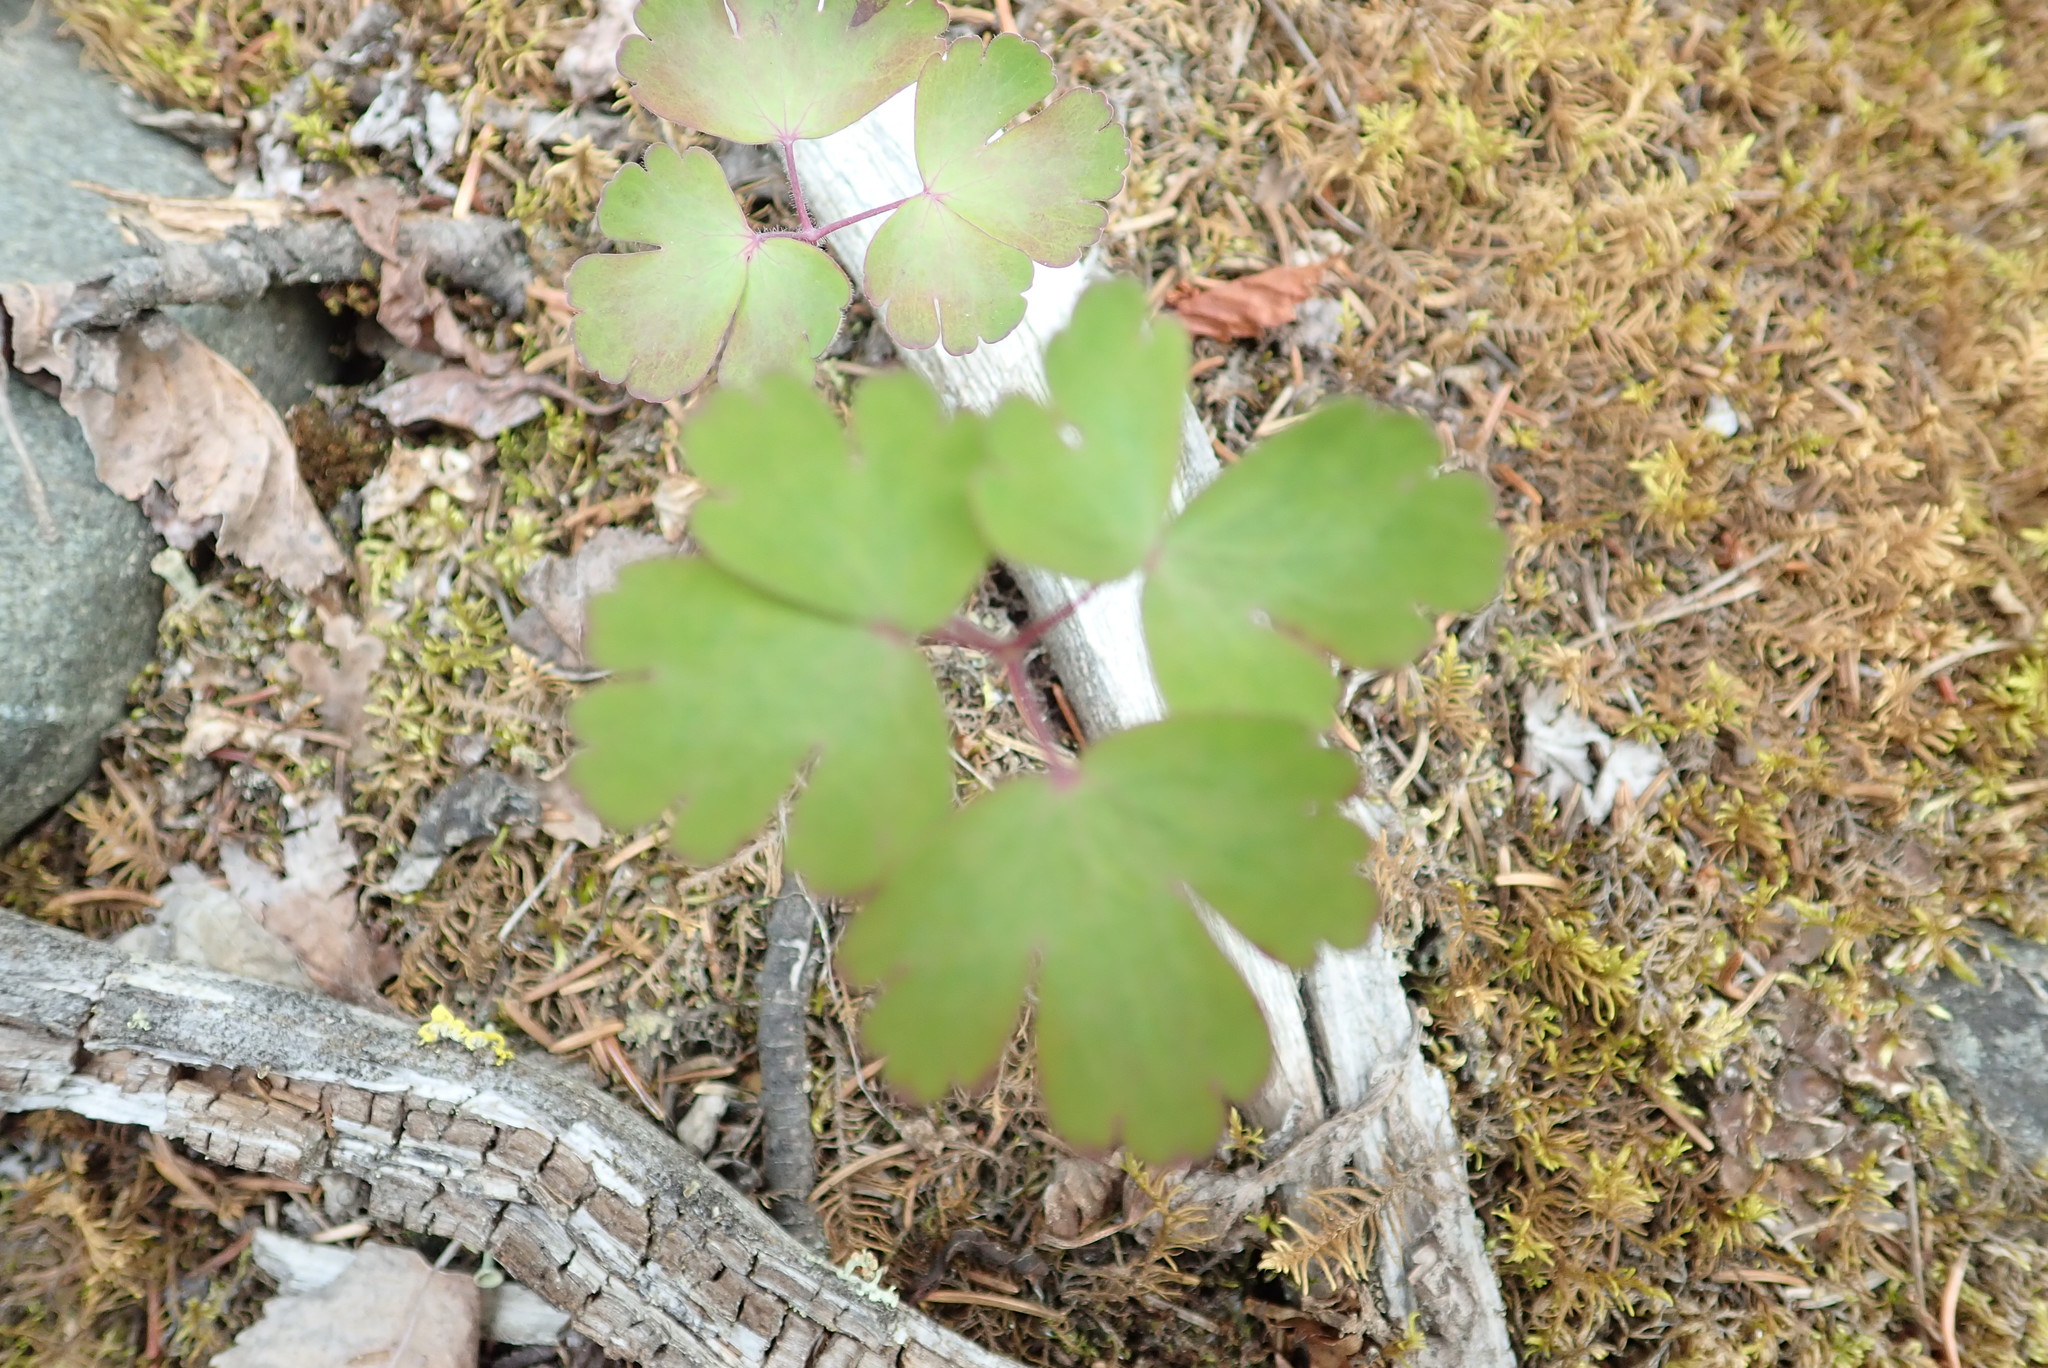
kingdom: Plantae
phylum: Tracheophyta
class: Magnoliopsida
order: Ranunculales
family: Ranunculaceae
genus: Aquilegia
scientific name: Aquilegia brevistyla
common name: Yukon columbine
